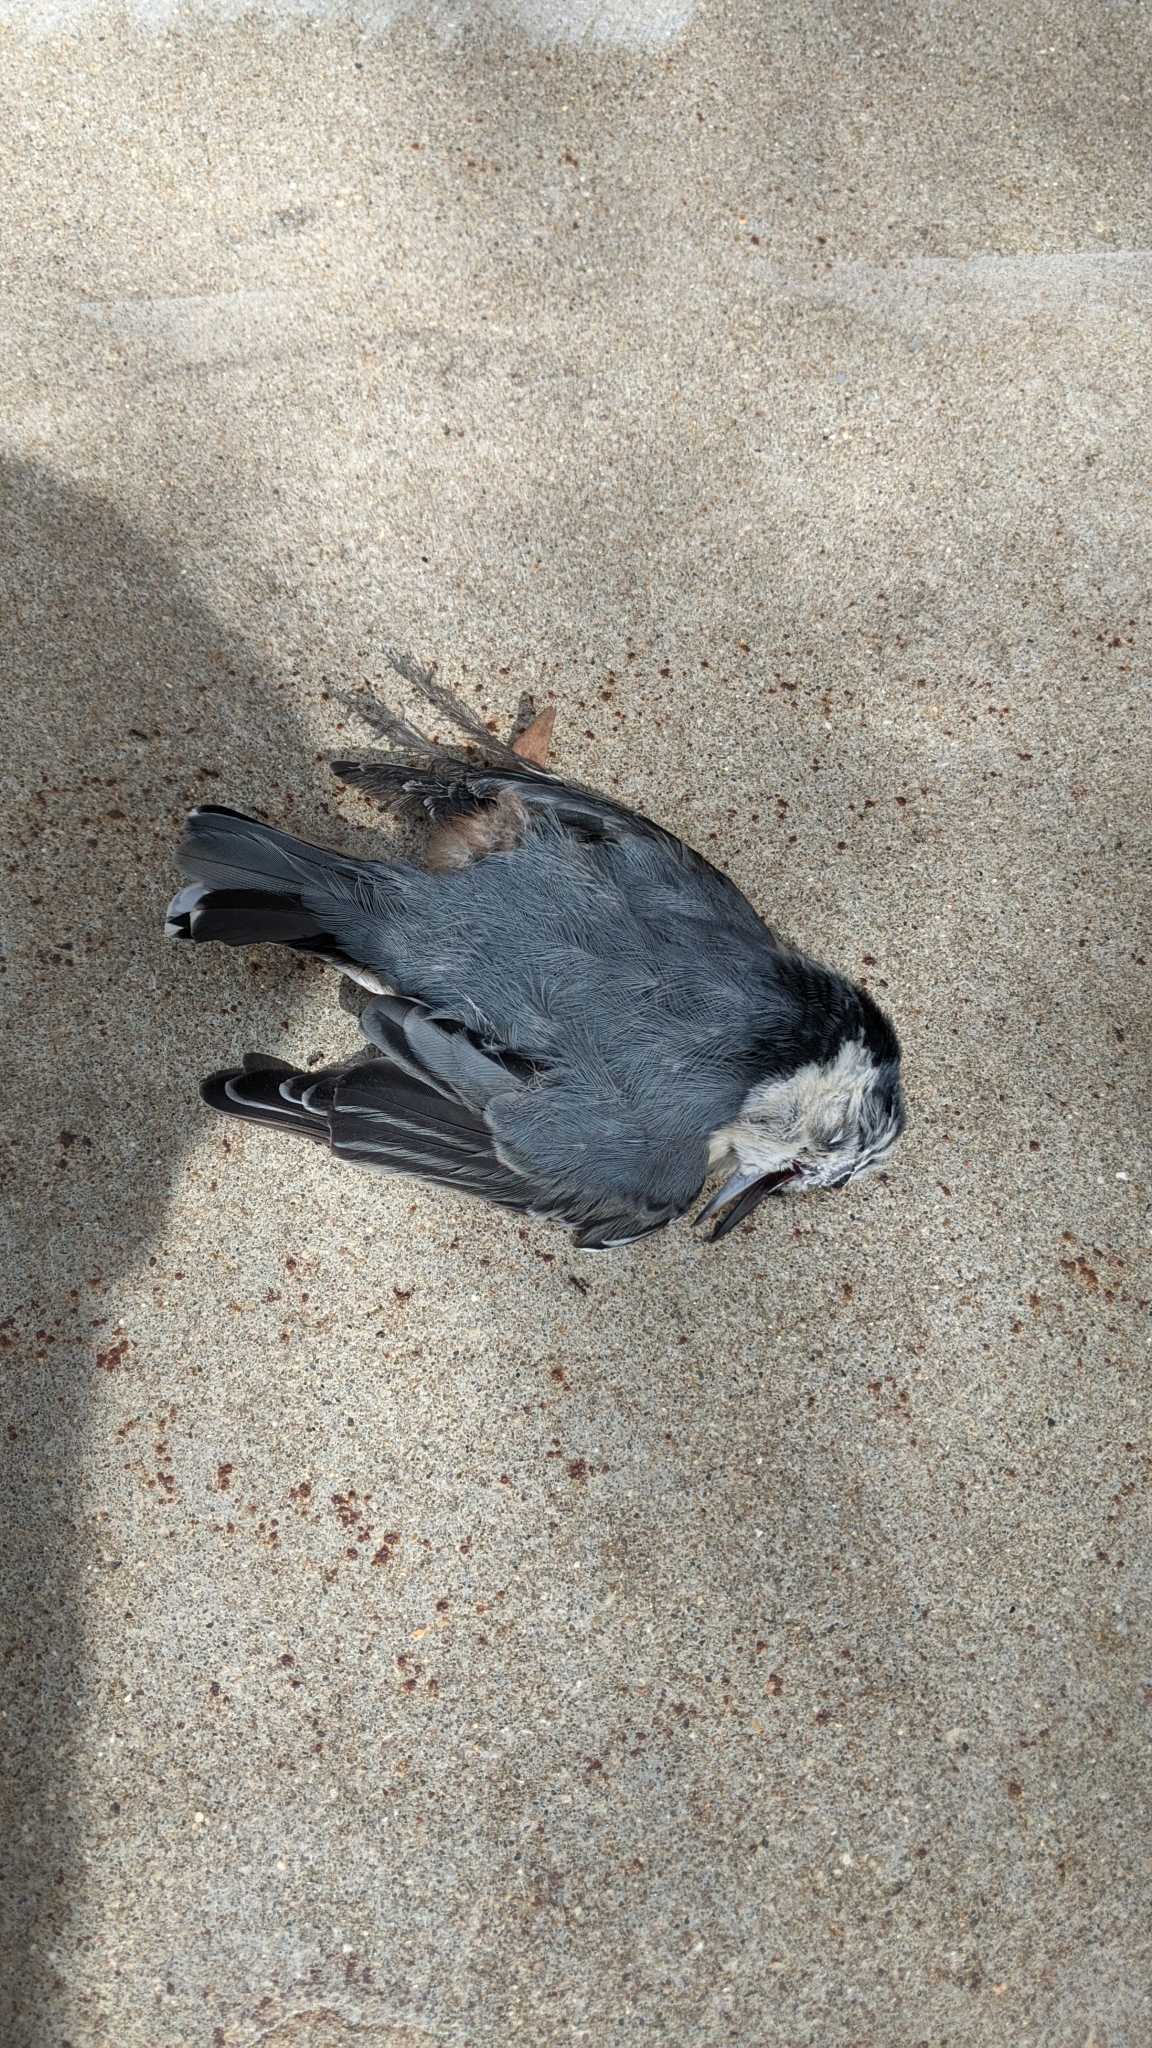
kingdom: Animalia
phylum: Chordata
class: Aves
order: Passeriformes
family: Sittidae
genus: Sitta
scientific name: Sitta carolinensis
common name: White-breasted nuthatch
